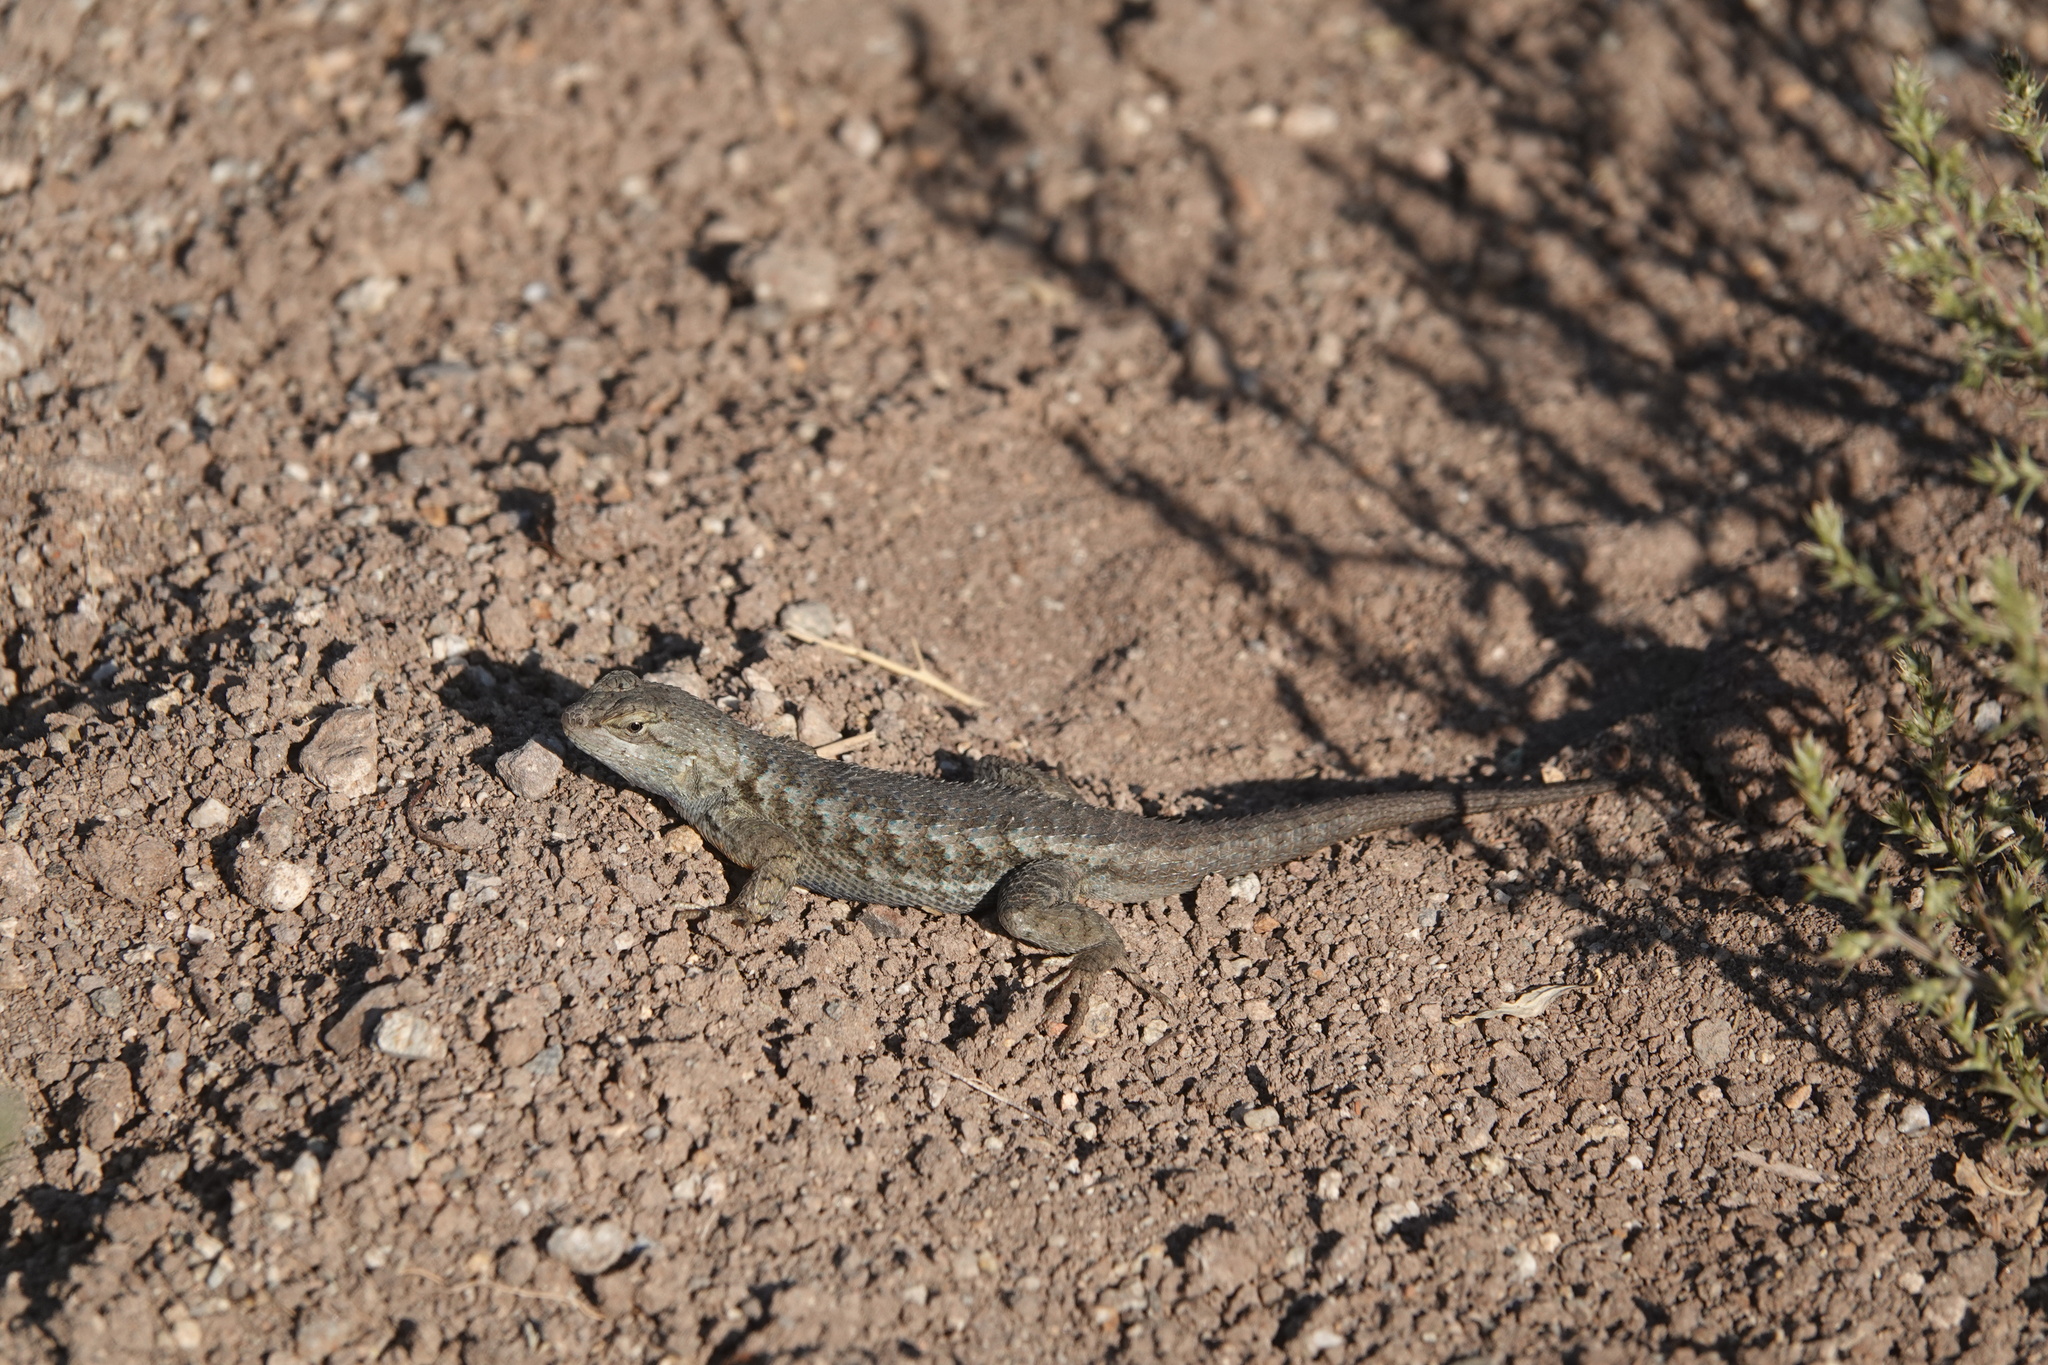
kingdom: Animalia
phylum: Chordata
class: Squamata
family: Phrynosomatidae
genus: Sceloporus
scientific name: Sceloporus occidentalis
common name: Western fence lizard
